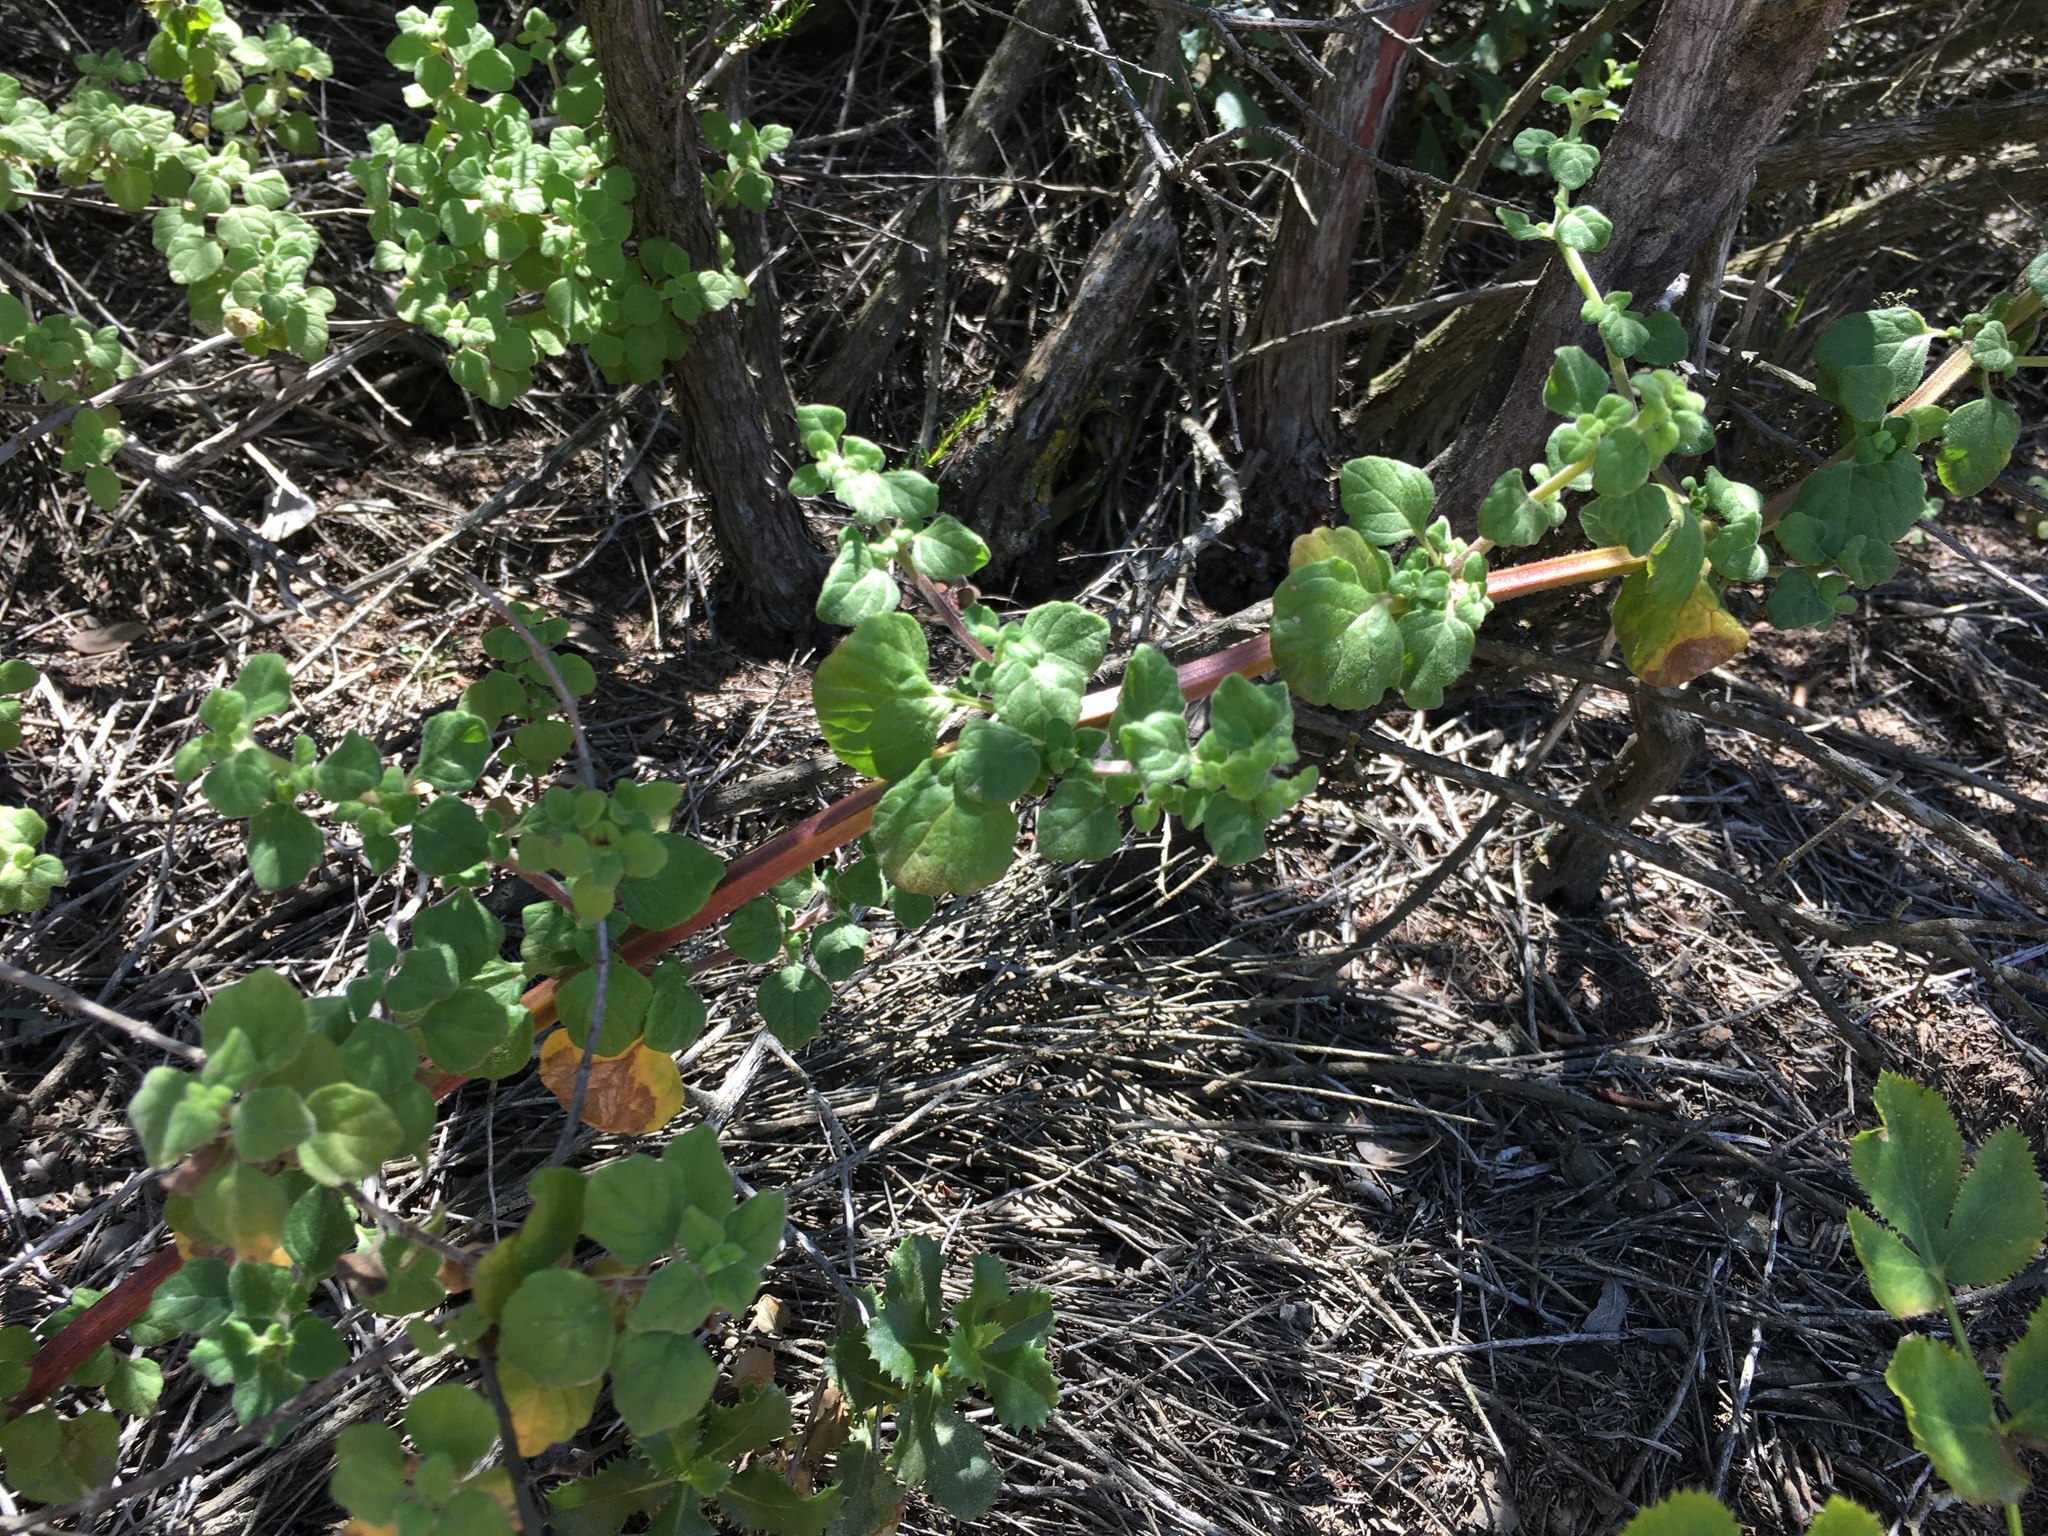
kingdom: Plantae
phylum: Tracheophyta
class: Magnoliopsida
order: Lamiales
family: Lamiaceae
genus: Clinopodium
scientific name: Clinopodium chandleri
